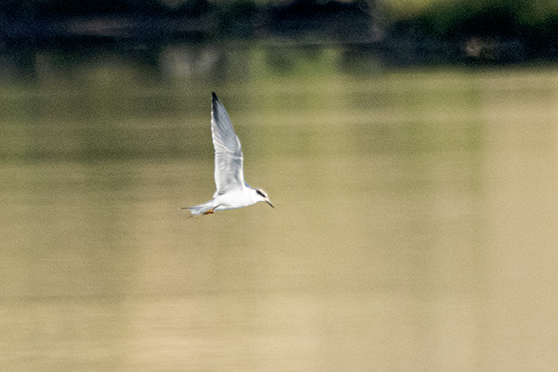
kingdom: Animalia
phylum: Chordata
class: Aves
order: Charadriiformes
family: Laridae
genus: Sterna
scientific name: Sterna forsteri
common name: Forster's tern
